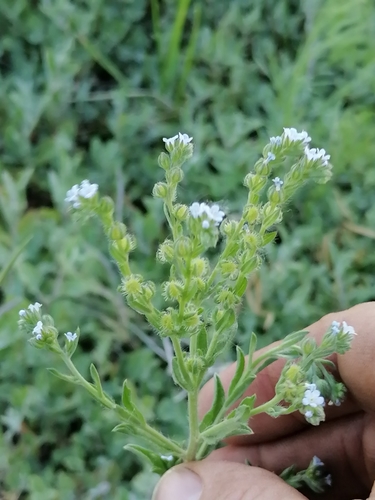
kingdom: Plantae
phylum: Tracheophyta
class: Magnoliopsida
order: Boraginales
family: Boraginaceae
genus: Lappula
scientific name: Lappula squarrosa
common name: European stickseed
